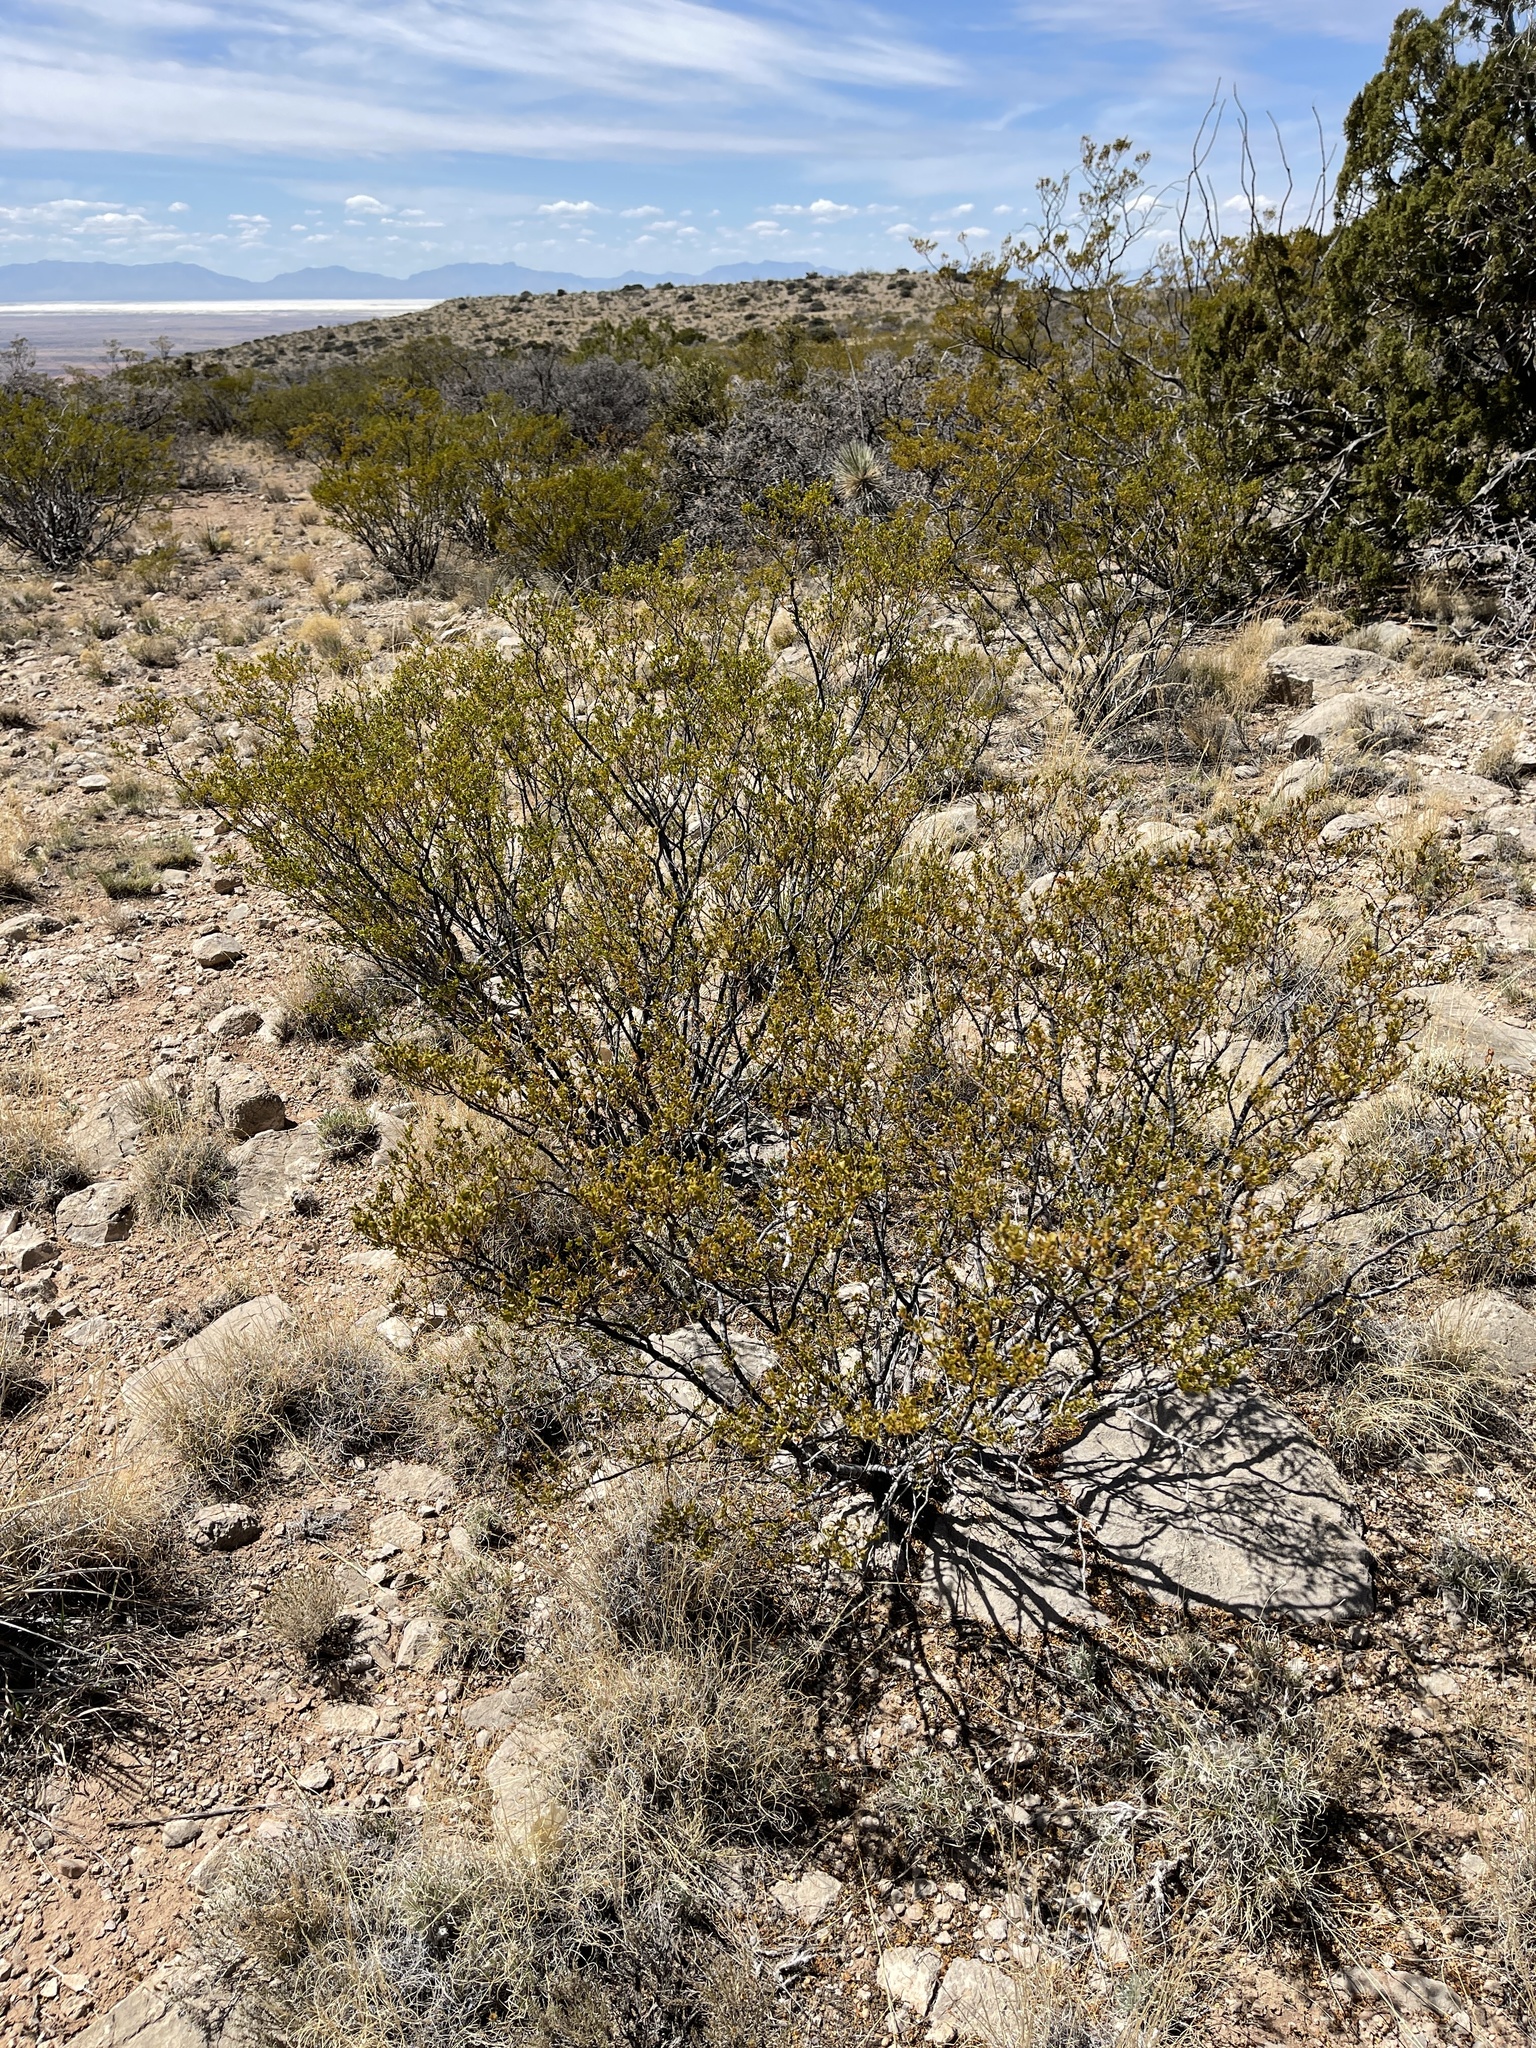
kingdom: Plantae
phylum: Tracheophyta
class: Magnoliopsida
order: Zygophyllales
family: Zygophyllaceae
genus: Larrea
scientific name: Larrea tridentata
